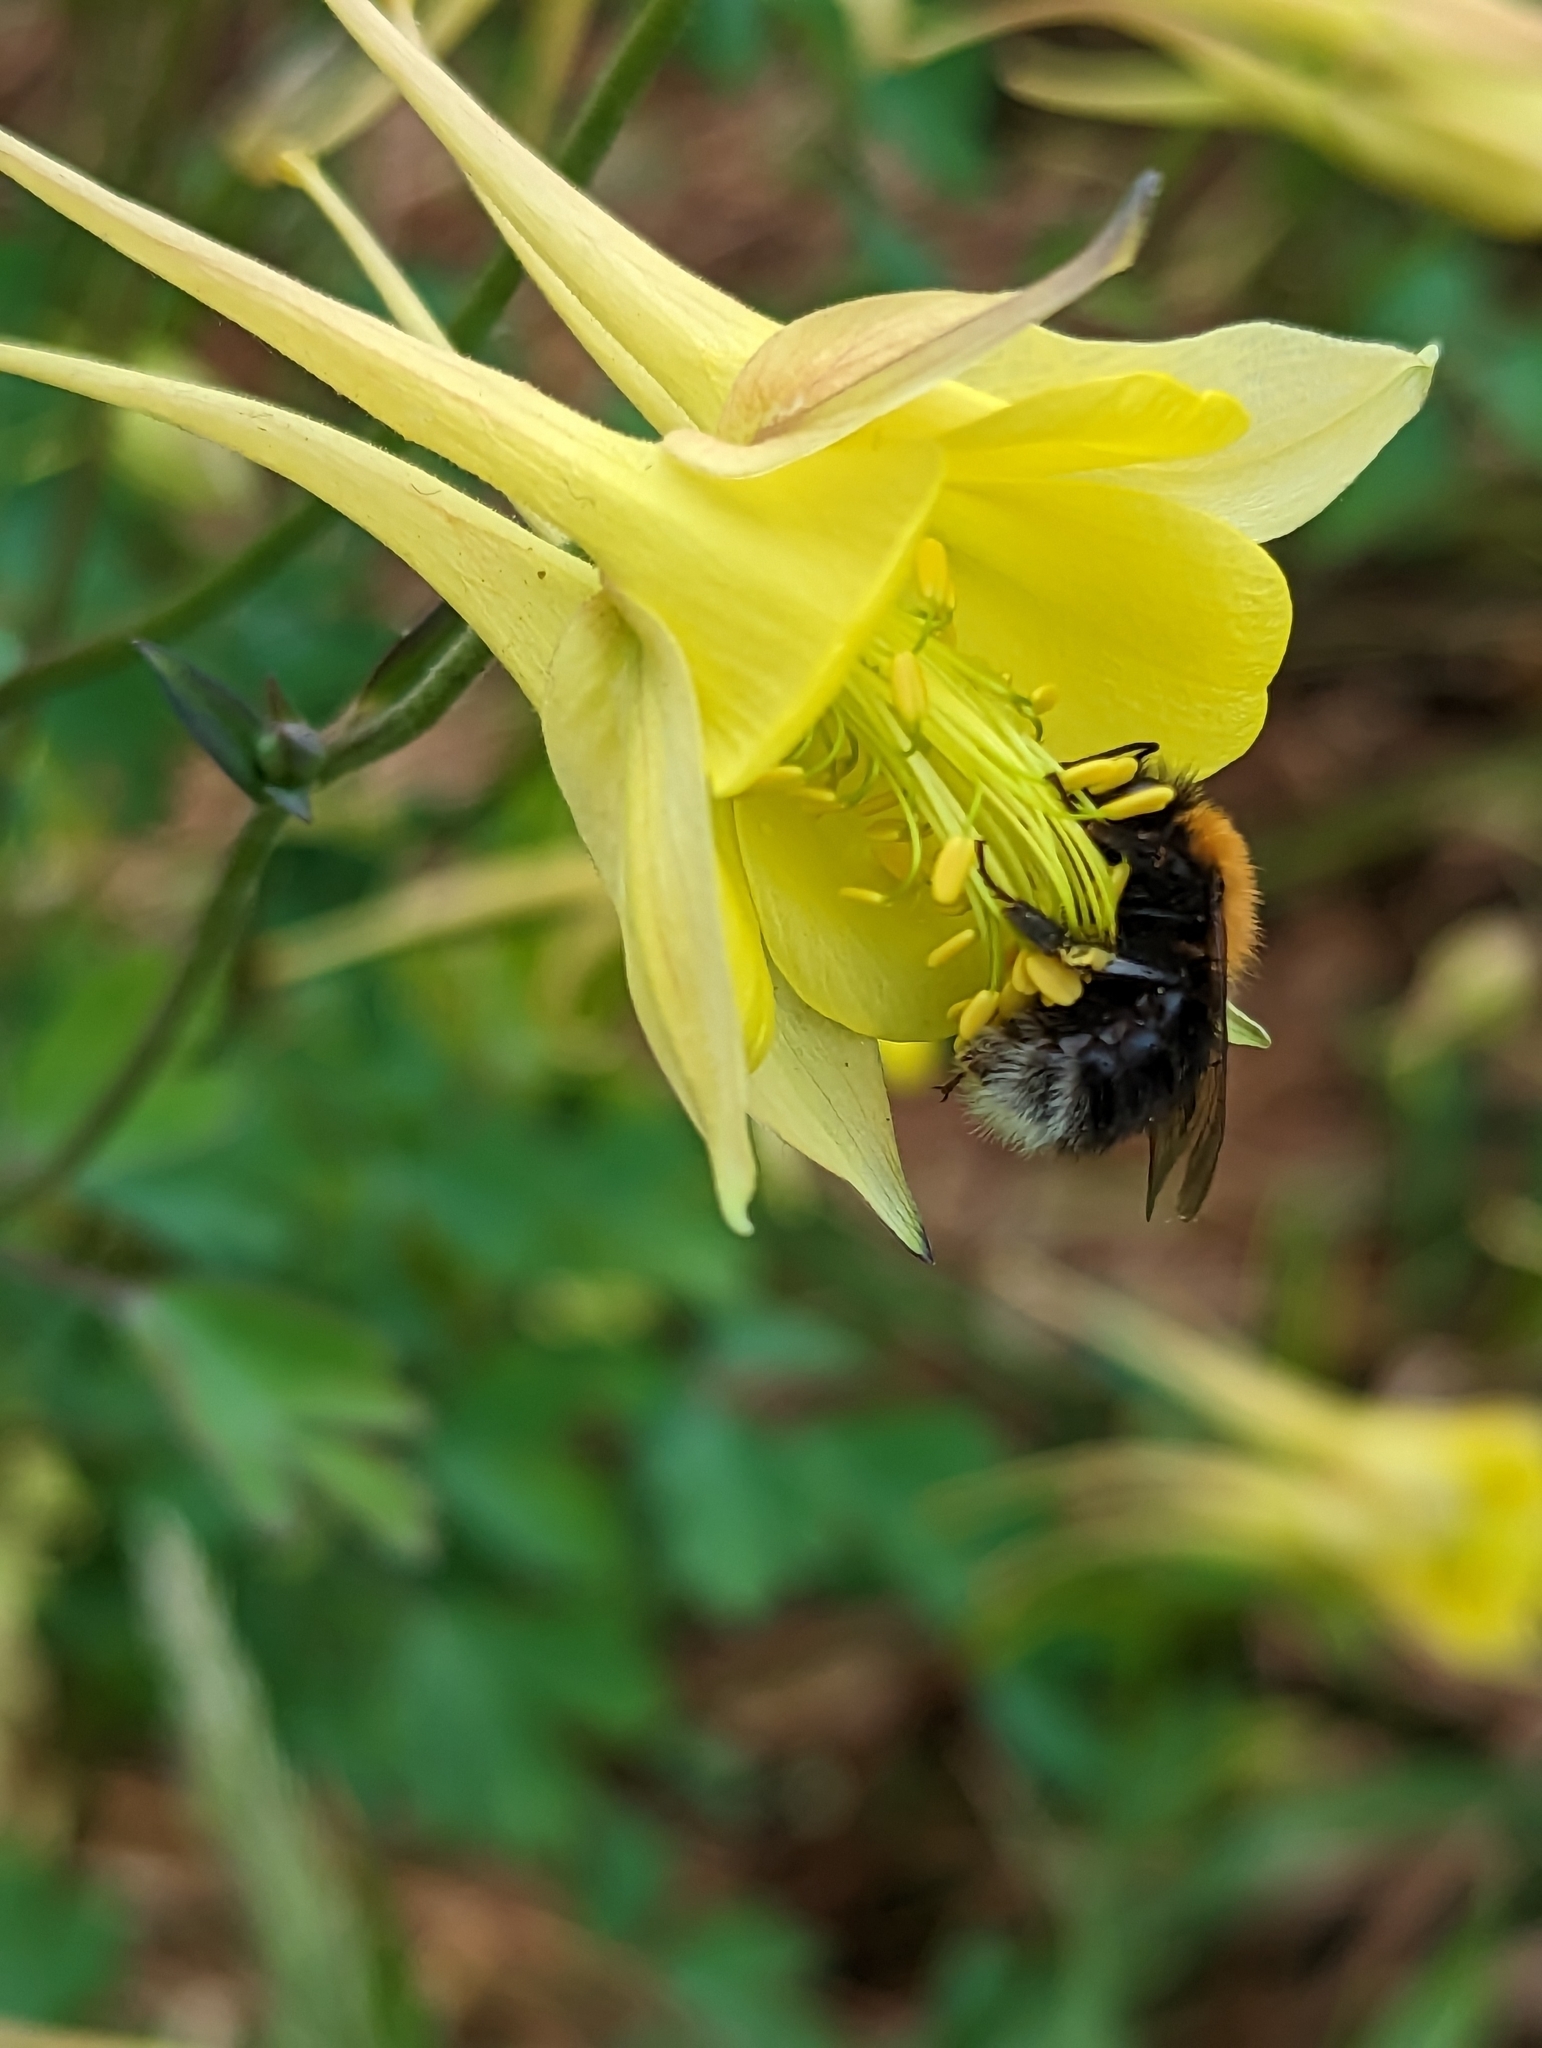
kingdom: Animalia
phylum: Arthropoda
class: Insecta
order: Hymenoptera
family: Apidae
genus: Bombus
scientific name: Bombus hypnorum
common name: New garden bumblebee
